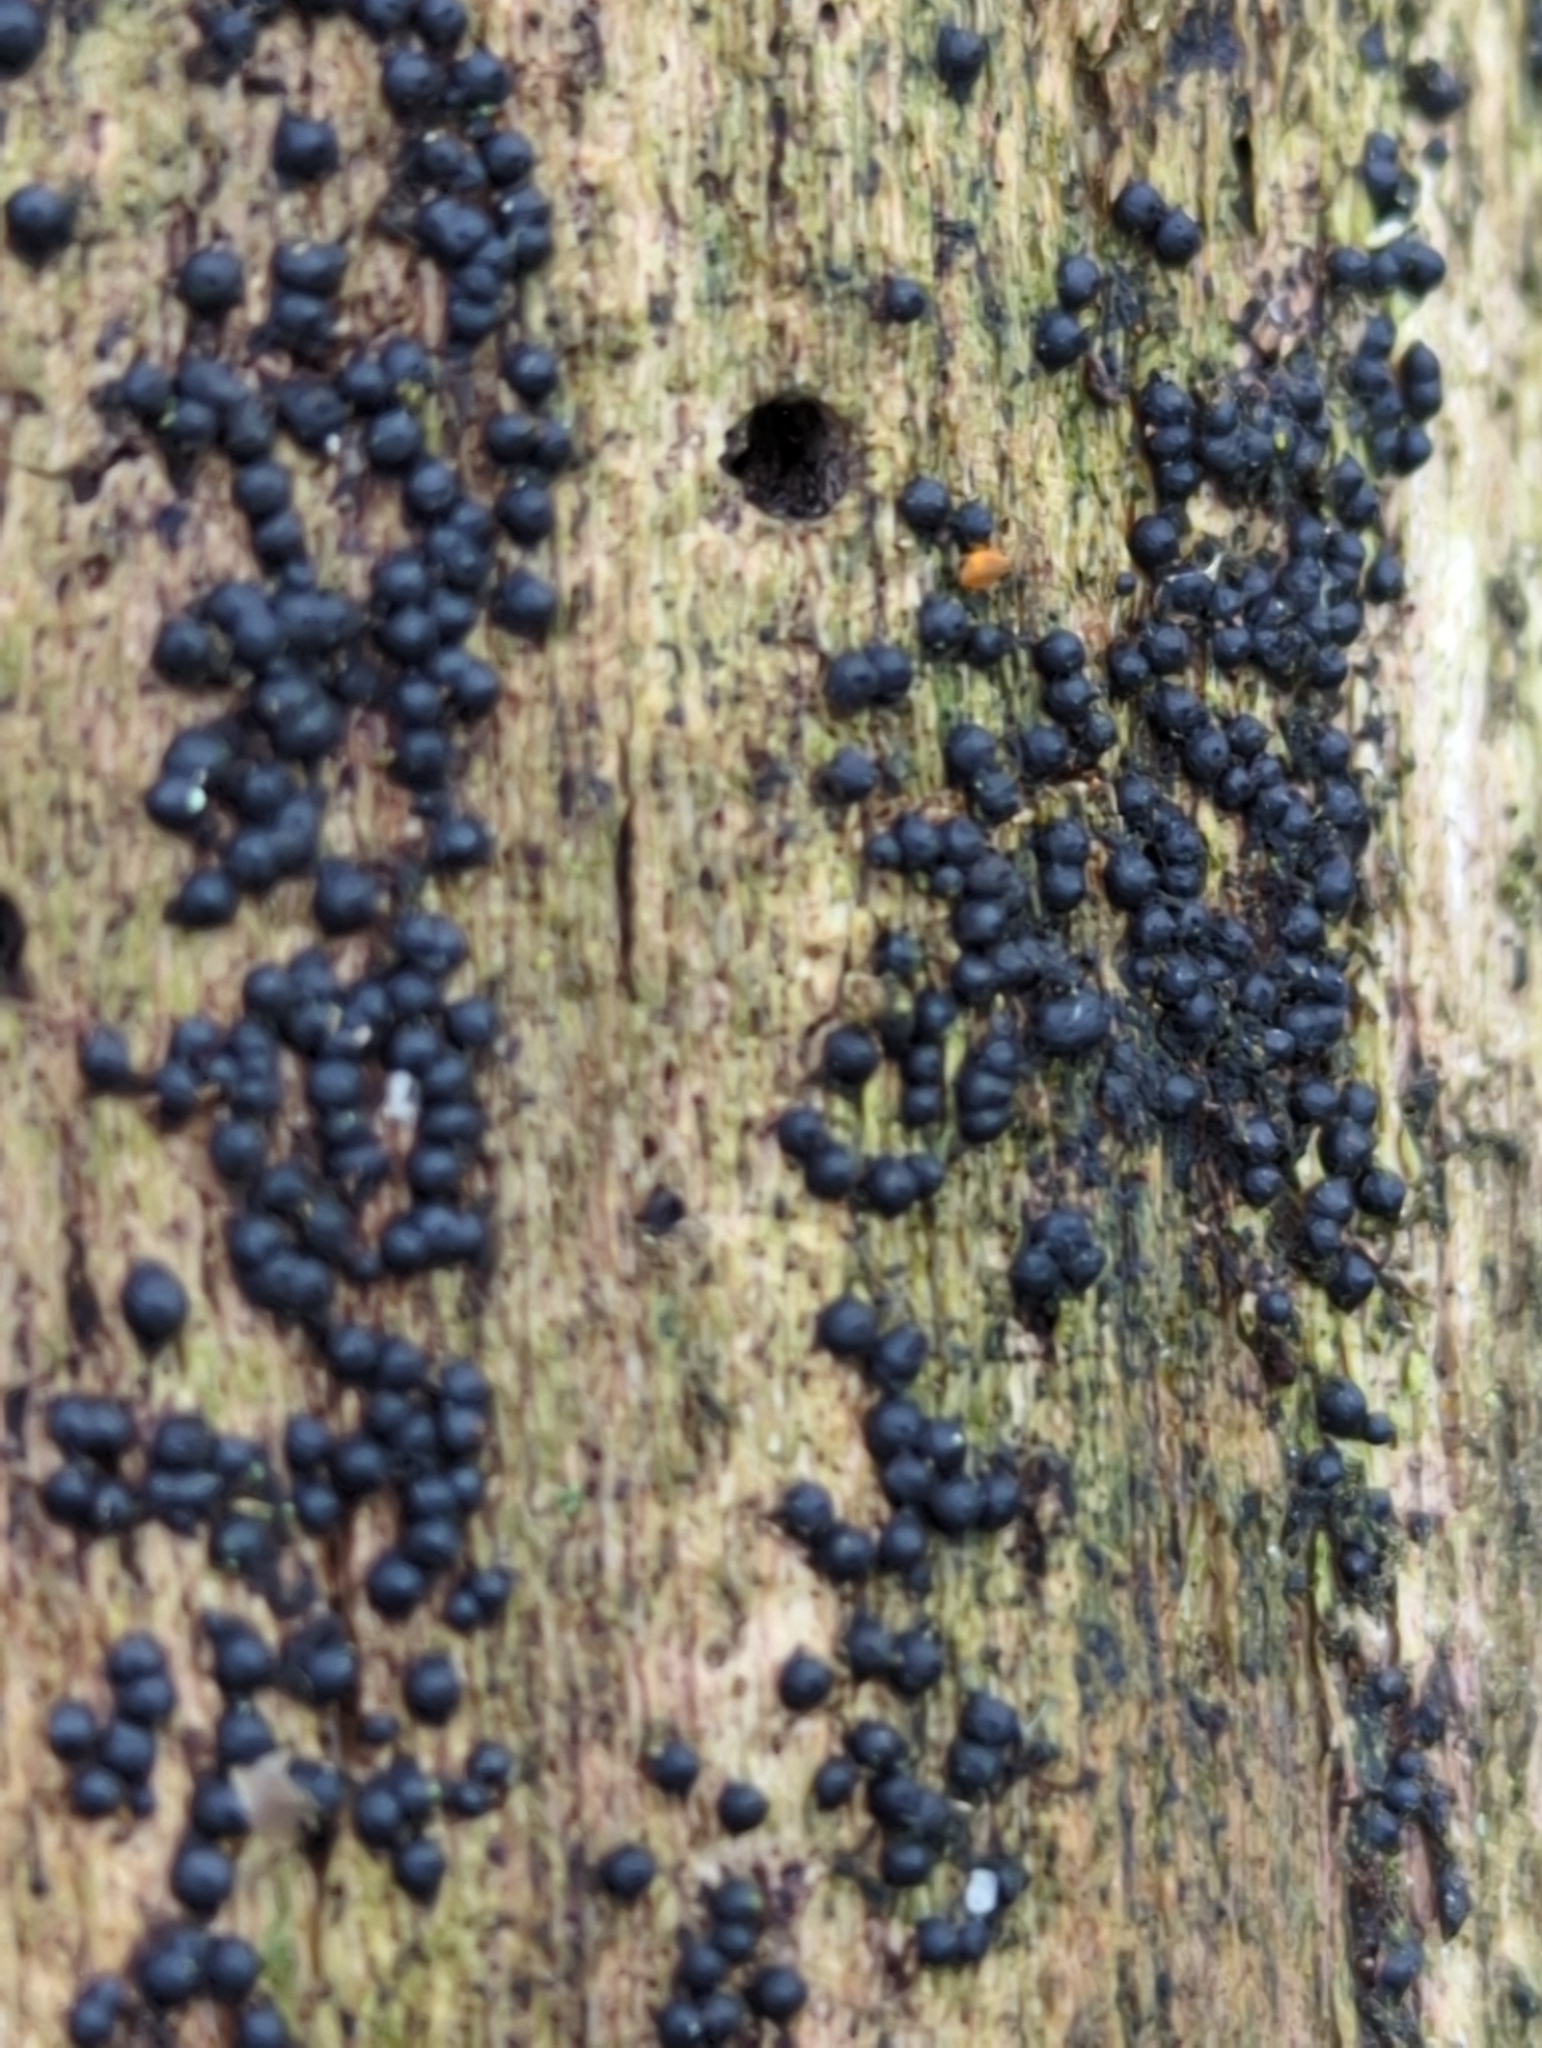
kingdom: Fungi
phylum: Ascomycota
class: Sordariomycetes
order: Xylariales
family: Xylariaceae
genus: Rosellinia
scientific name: Rosellinia subiculata
